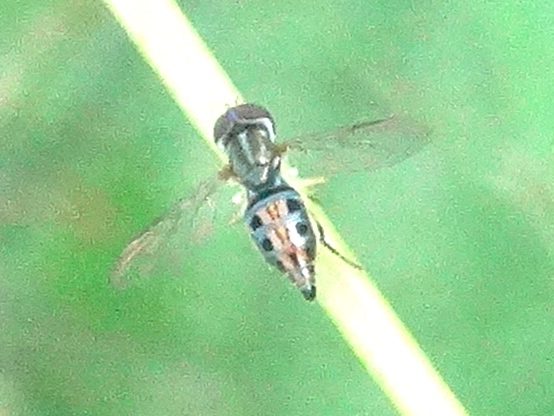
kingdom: Animalia
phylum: Arthropoda
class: Insecta
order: Diptera
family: Syrphidae
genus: Toxomerus
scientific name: Toxomerus bistrigus
